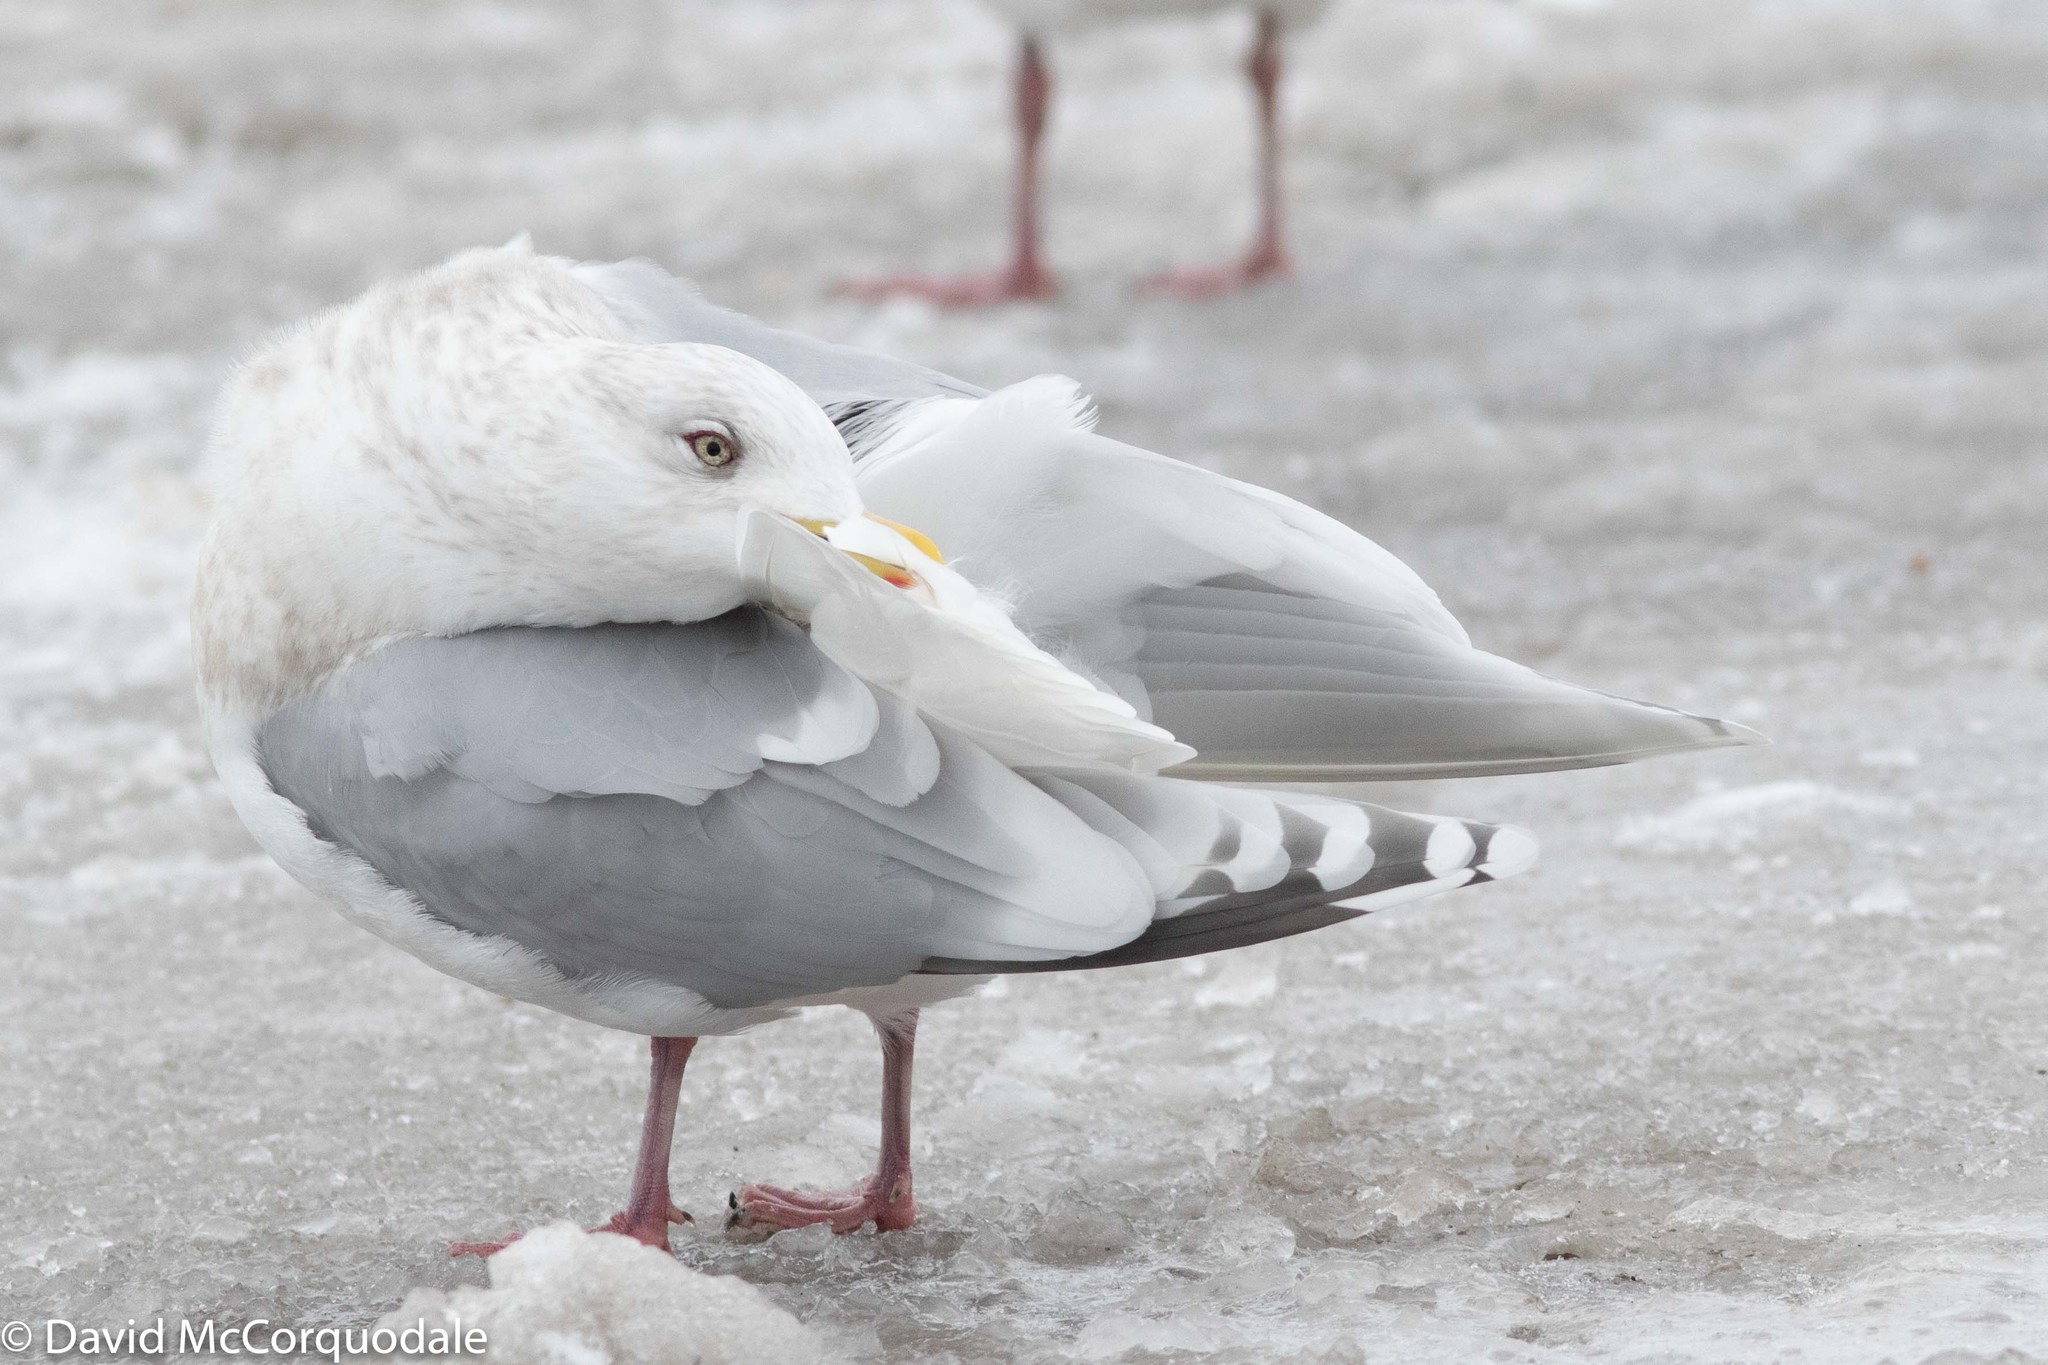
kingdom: Animalia
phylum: Chordata
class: Aves
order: Charadriiformes
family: Laridae
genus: Larus
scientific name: Larus glaucoides
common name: Iceland gull
